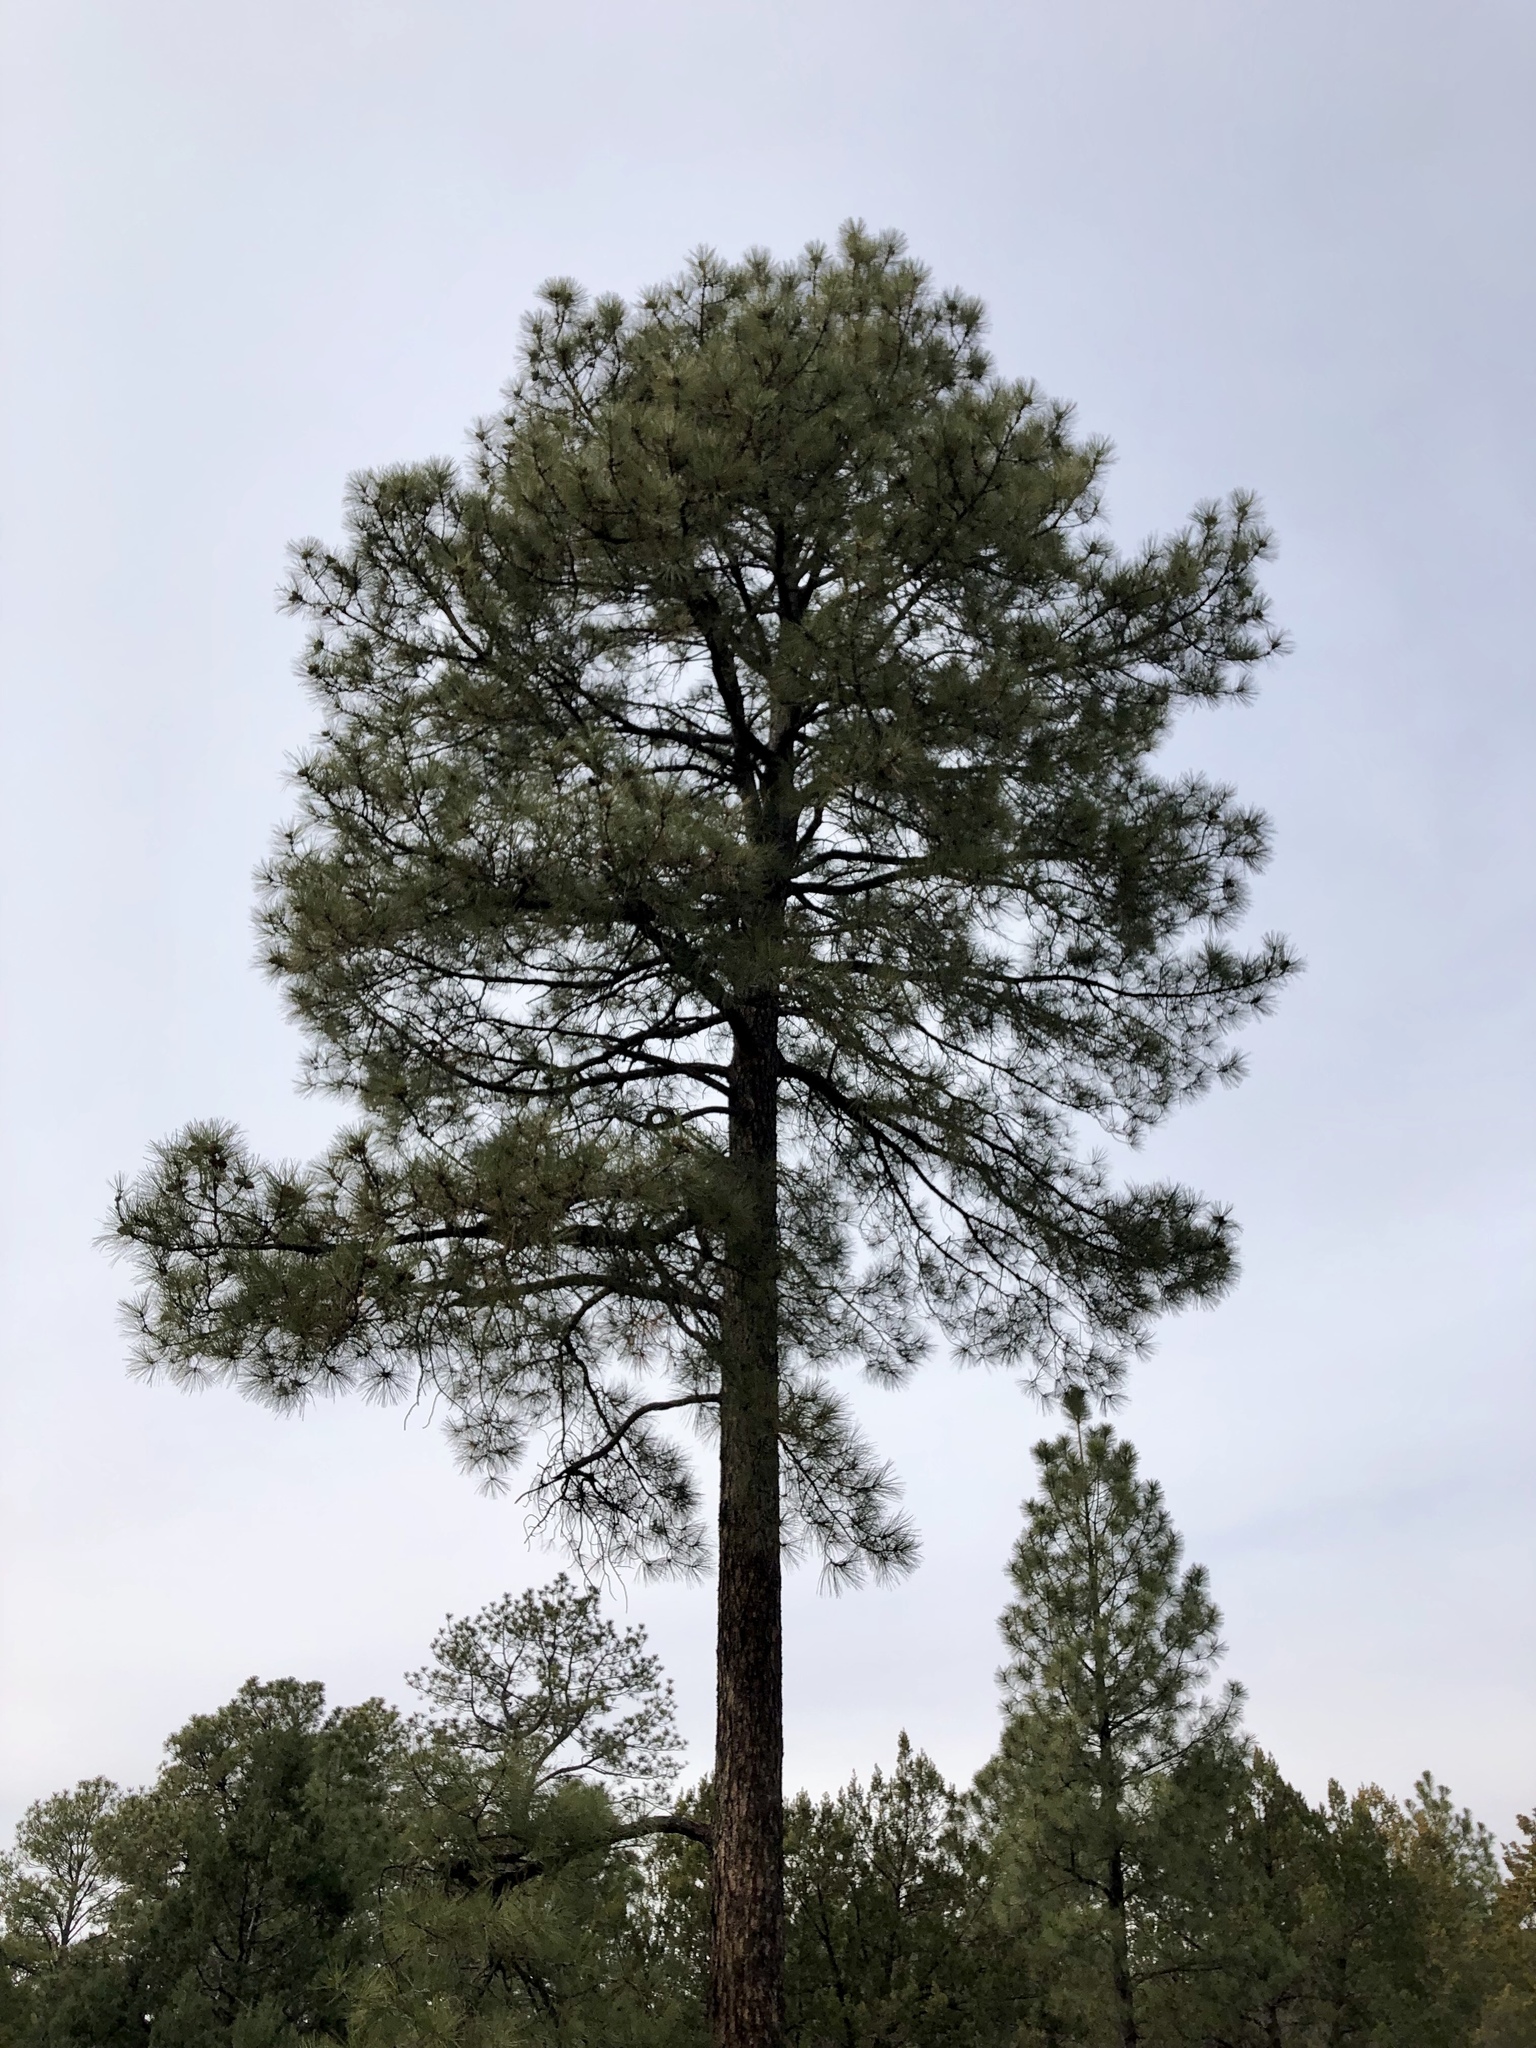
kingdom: Plantae
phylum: Tracheophyta
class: Pinopsida
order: Pinales
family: Pinaceae
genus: Pinus
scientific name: Pinus ponderosa
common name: Western yellow-pine
